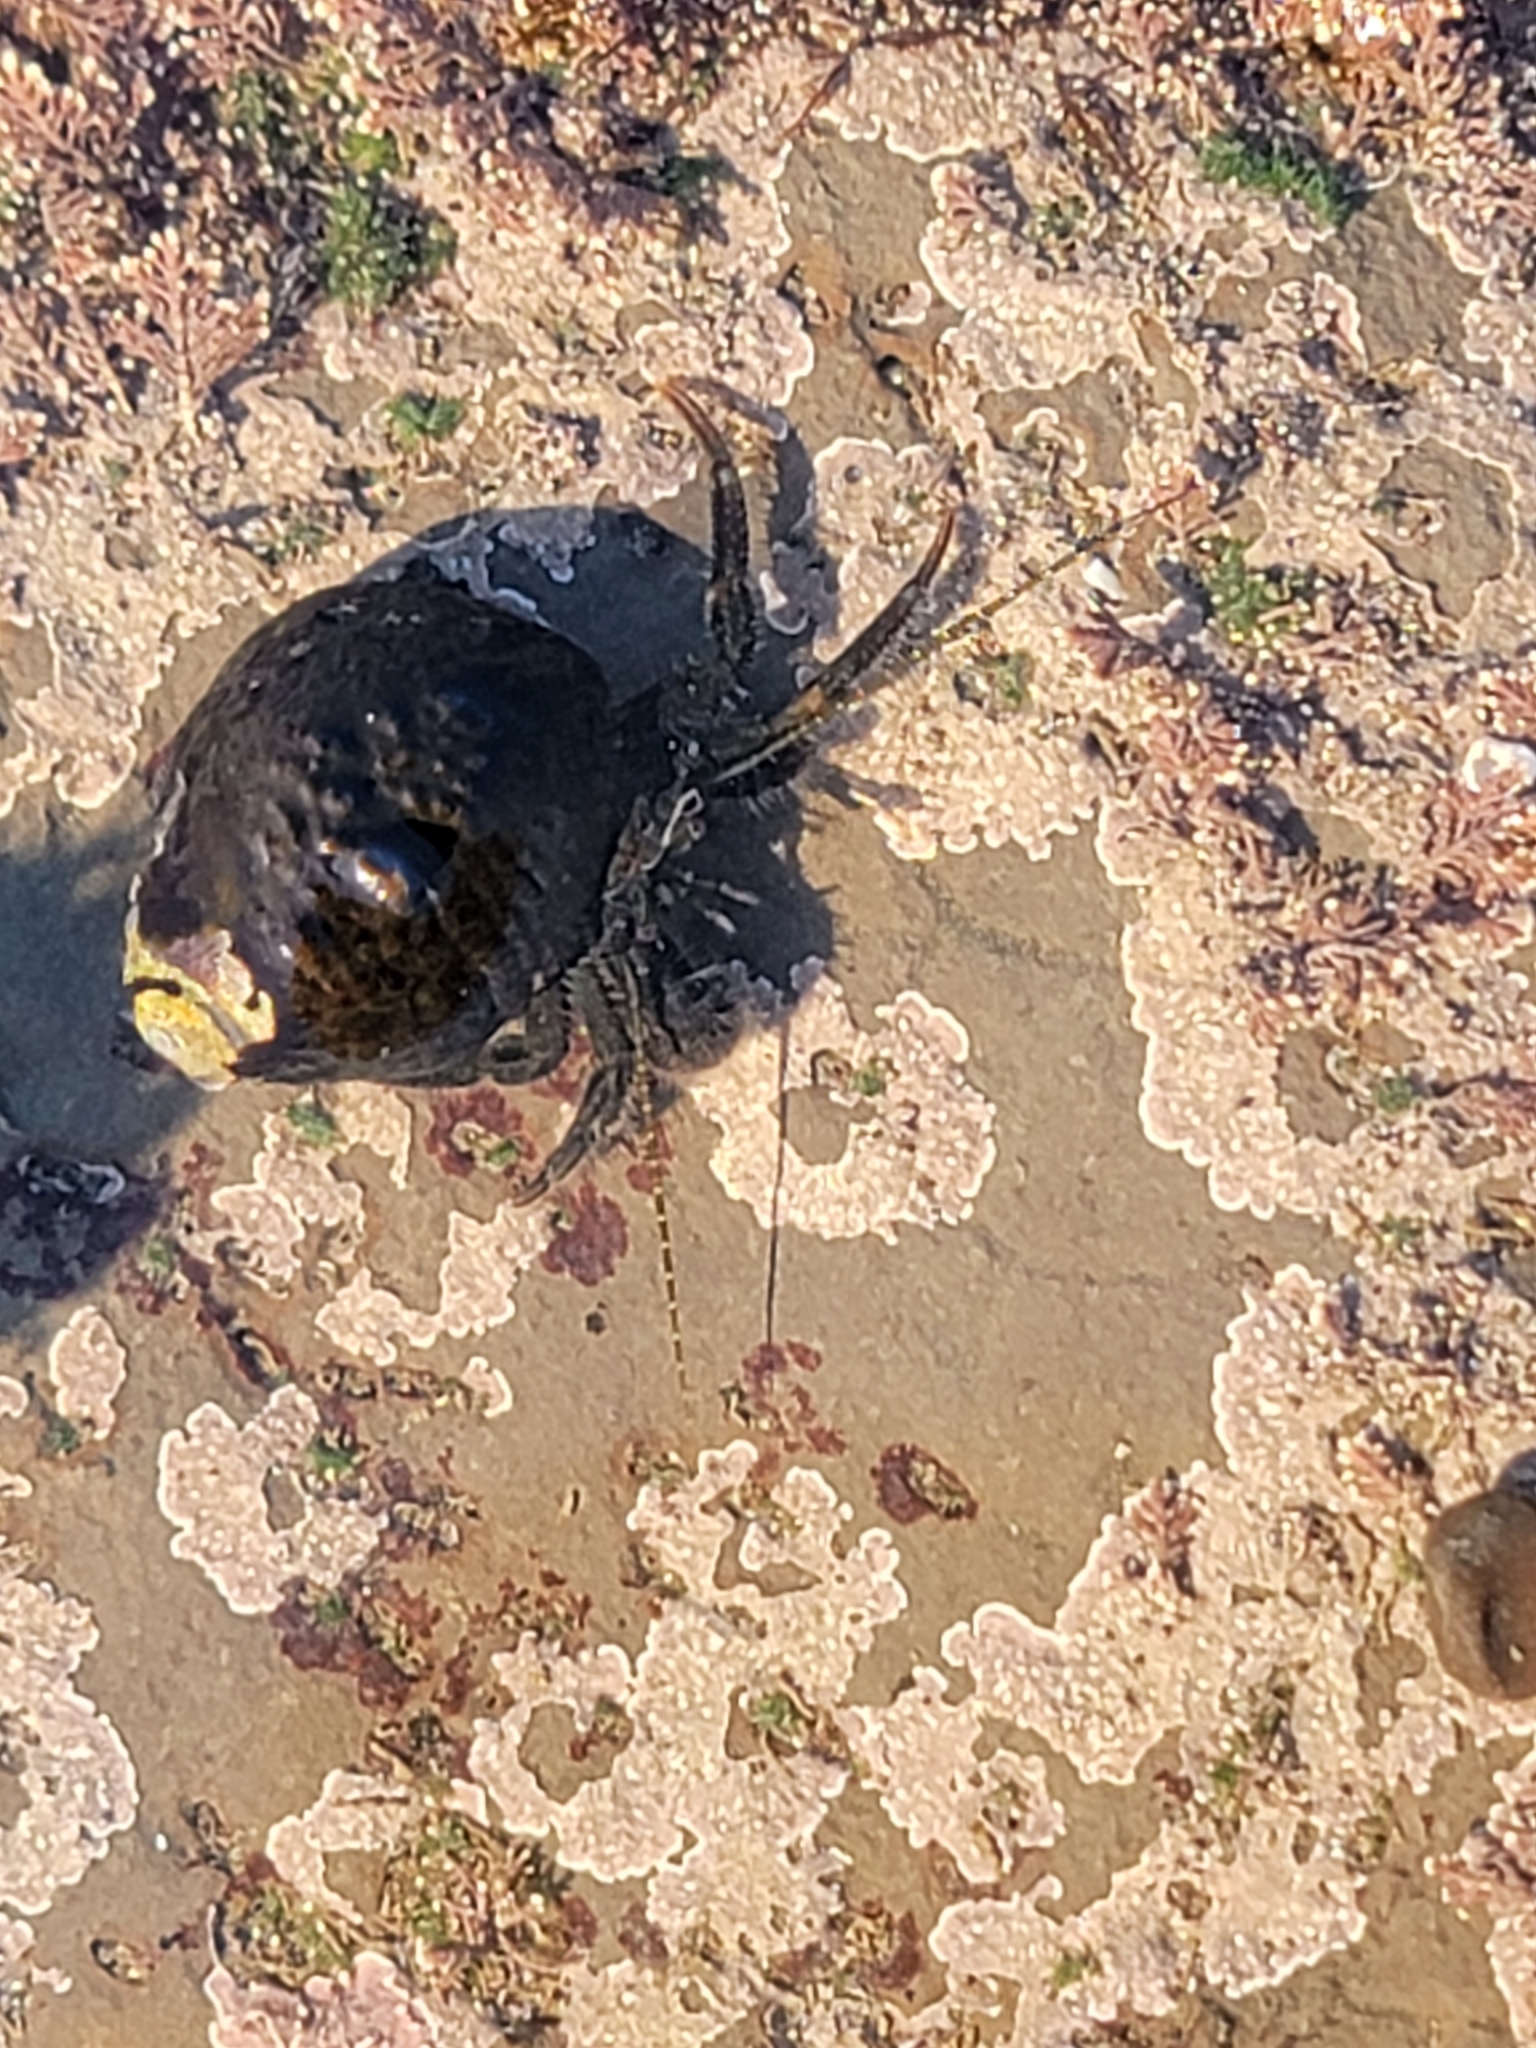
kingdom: Animalia
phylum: Arthropoda
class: Malacostraca
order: Decapoda
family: Paguridae
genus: Pagurus
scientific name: Pagurus hirsutiusculus
